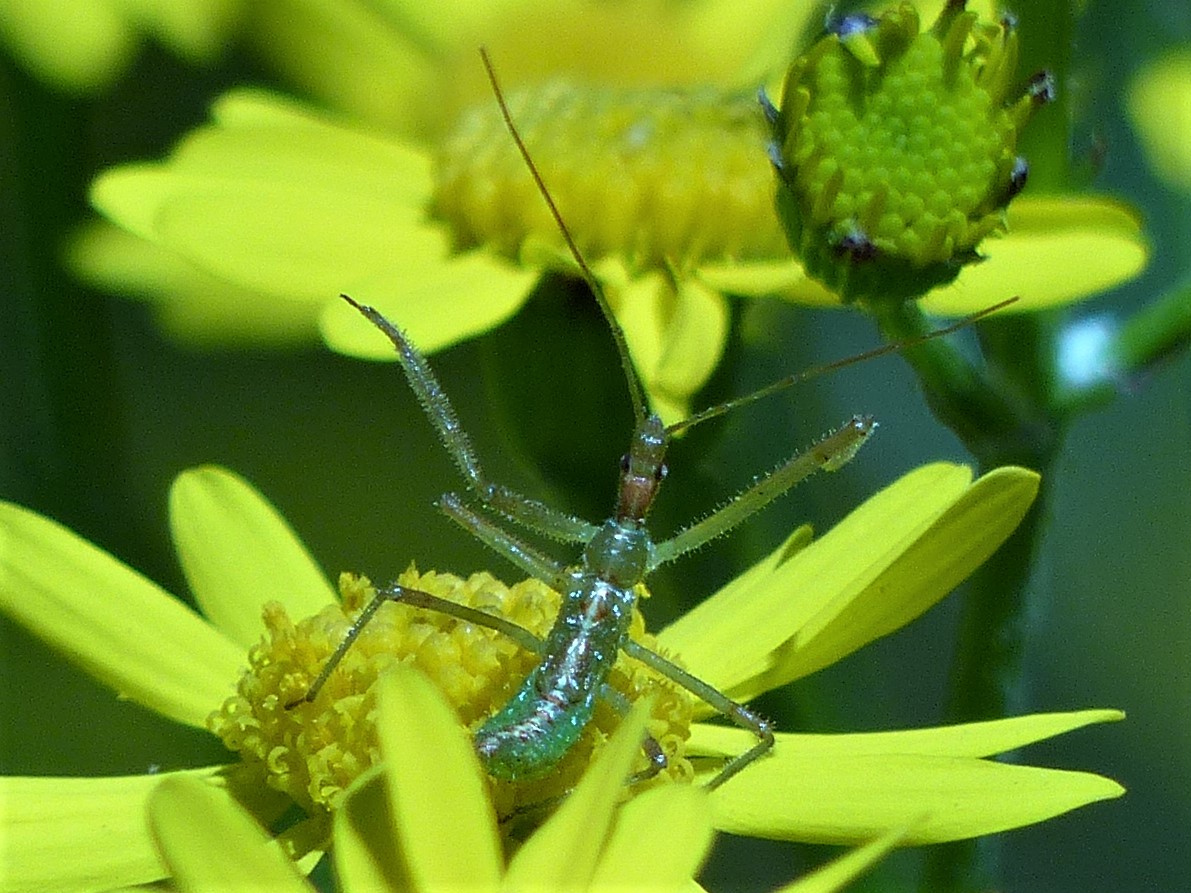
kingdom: Animalia
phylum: Arthropoda
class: Insecta
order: Hemiptera
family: Reduviidae
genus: Zelus
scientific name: Zelus luridus
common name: Pale green assassin bug
